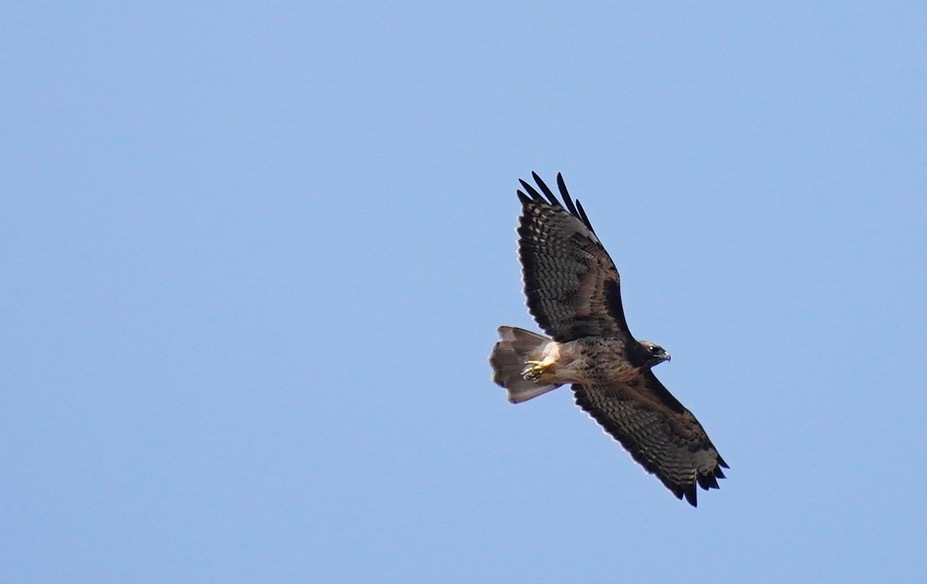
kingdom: Animalia
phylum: Chordata
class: Aves
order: Accipitriformes
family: Accipitridae
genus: Buteo
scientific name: Buteo jamaicensis
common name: Red-tailed hawk
